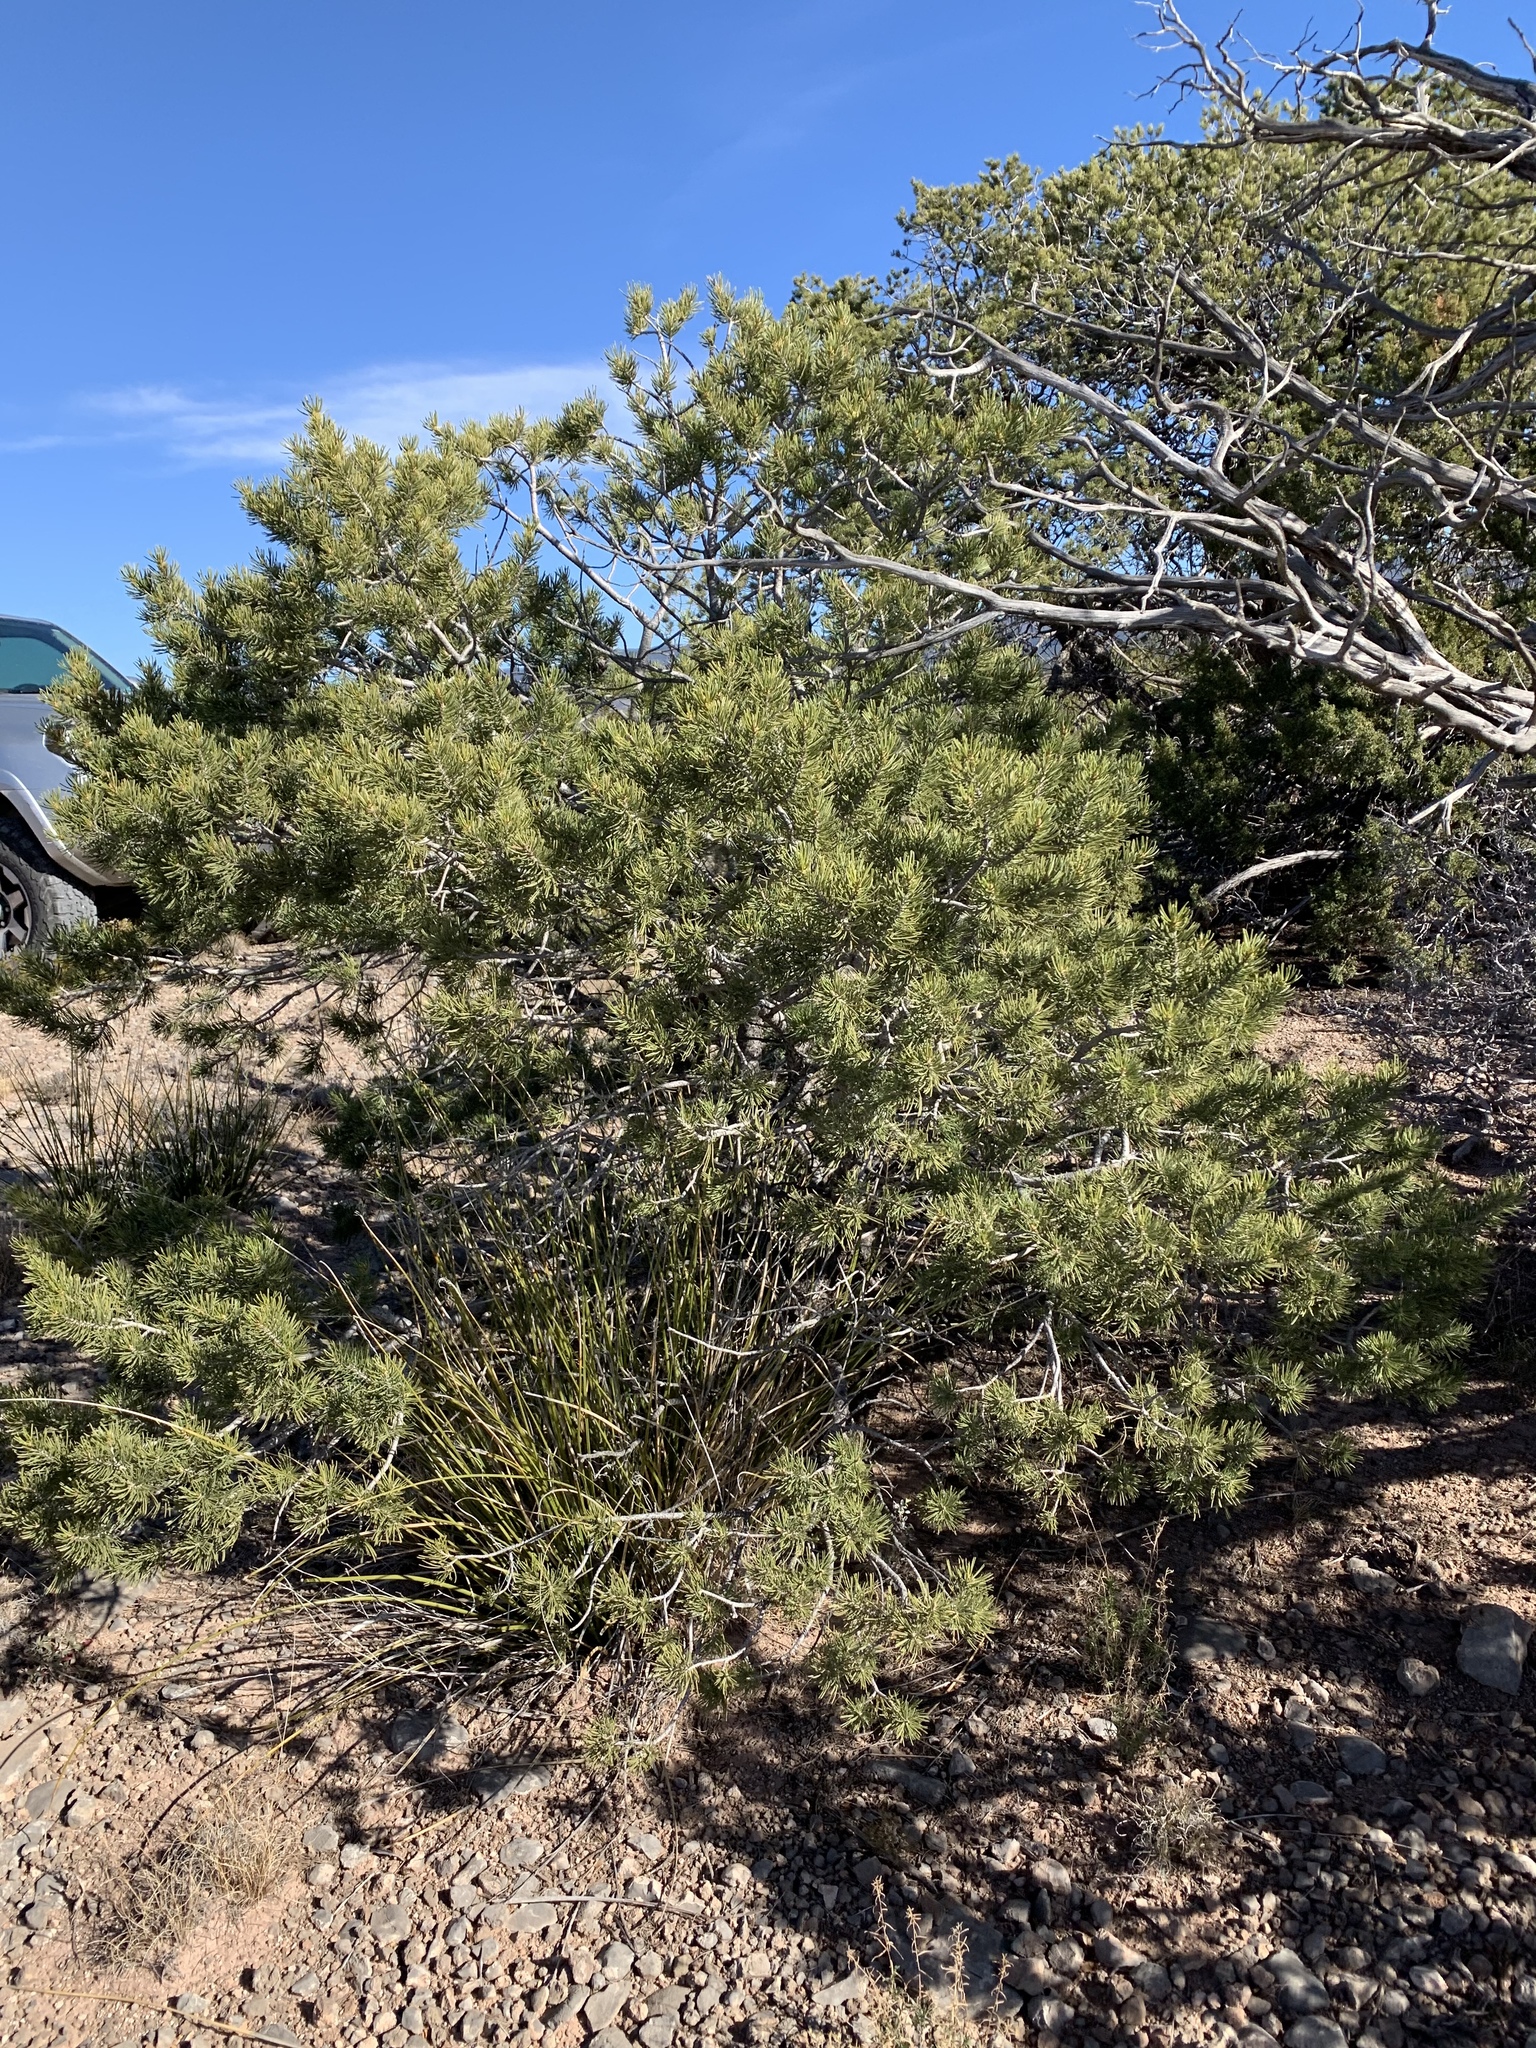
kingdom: Plantae
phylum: Tracheophyta
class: Pinopsida
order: Pinales
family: Pinaceae
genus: Pinus
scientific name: Pinus edulis
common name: Colorado pinyon
